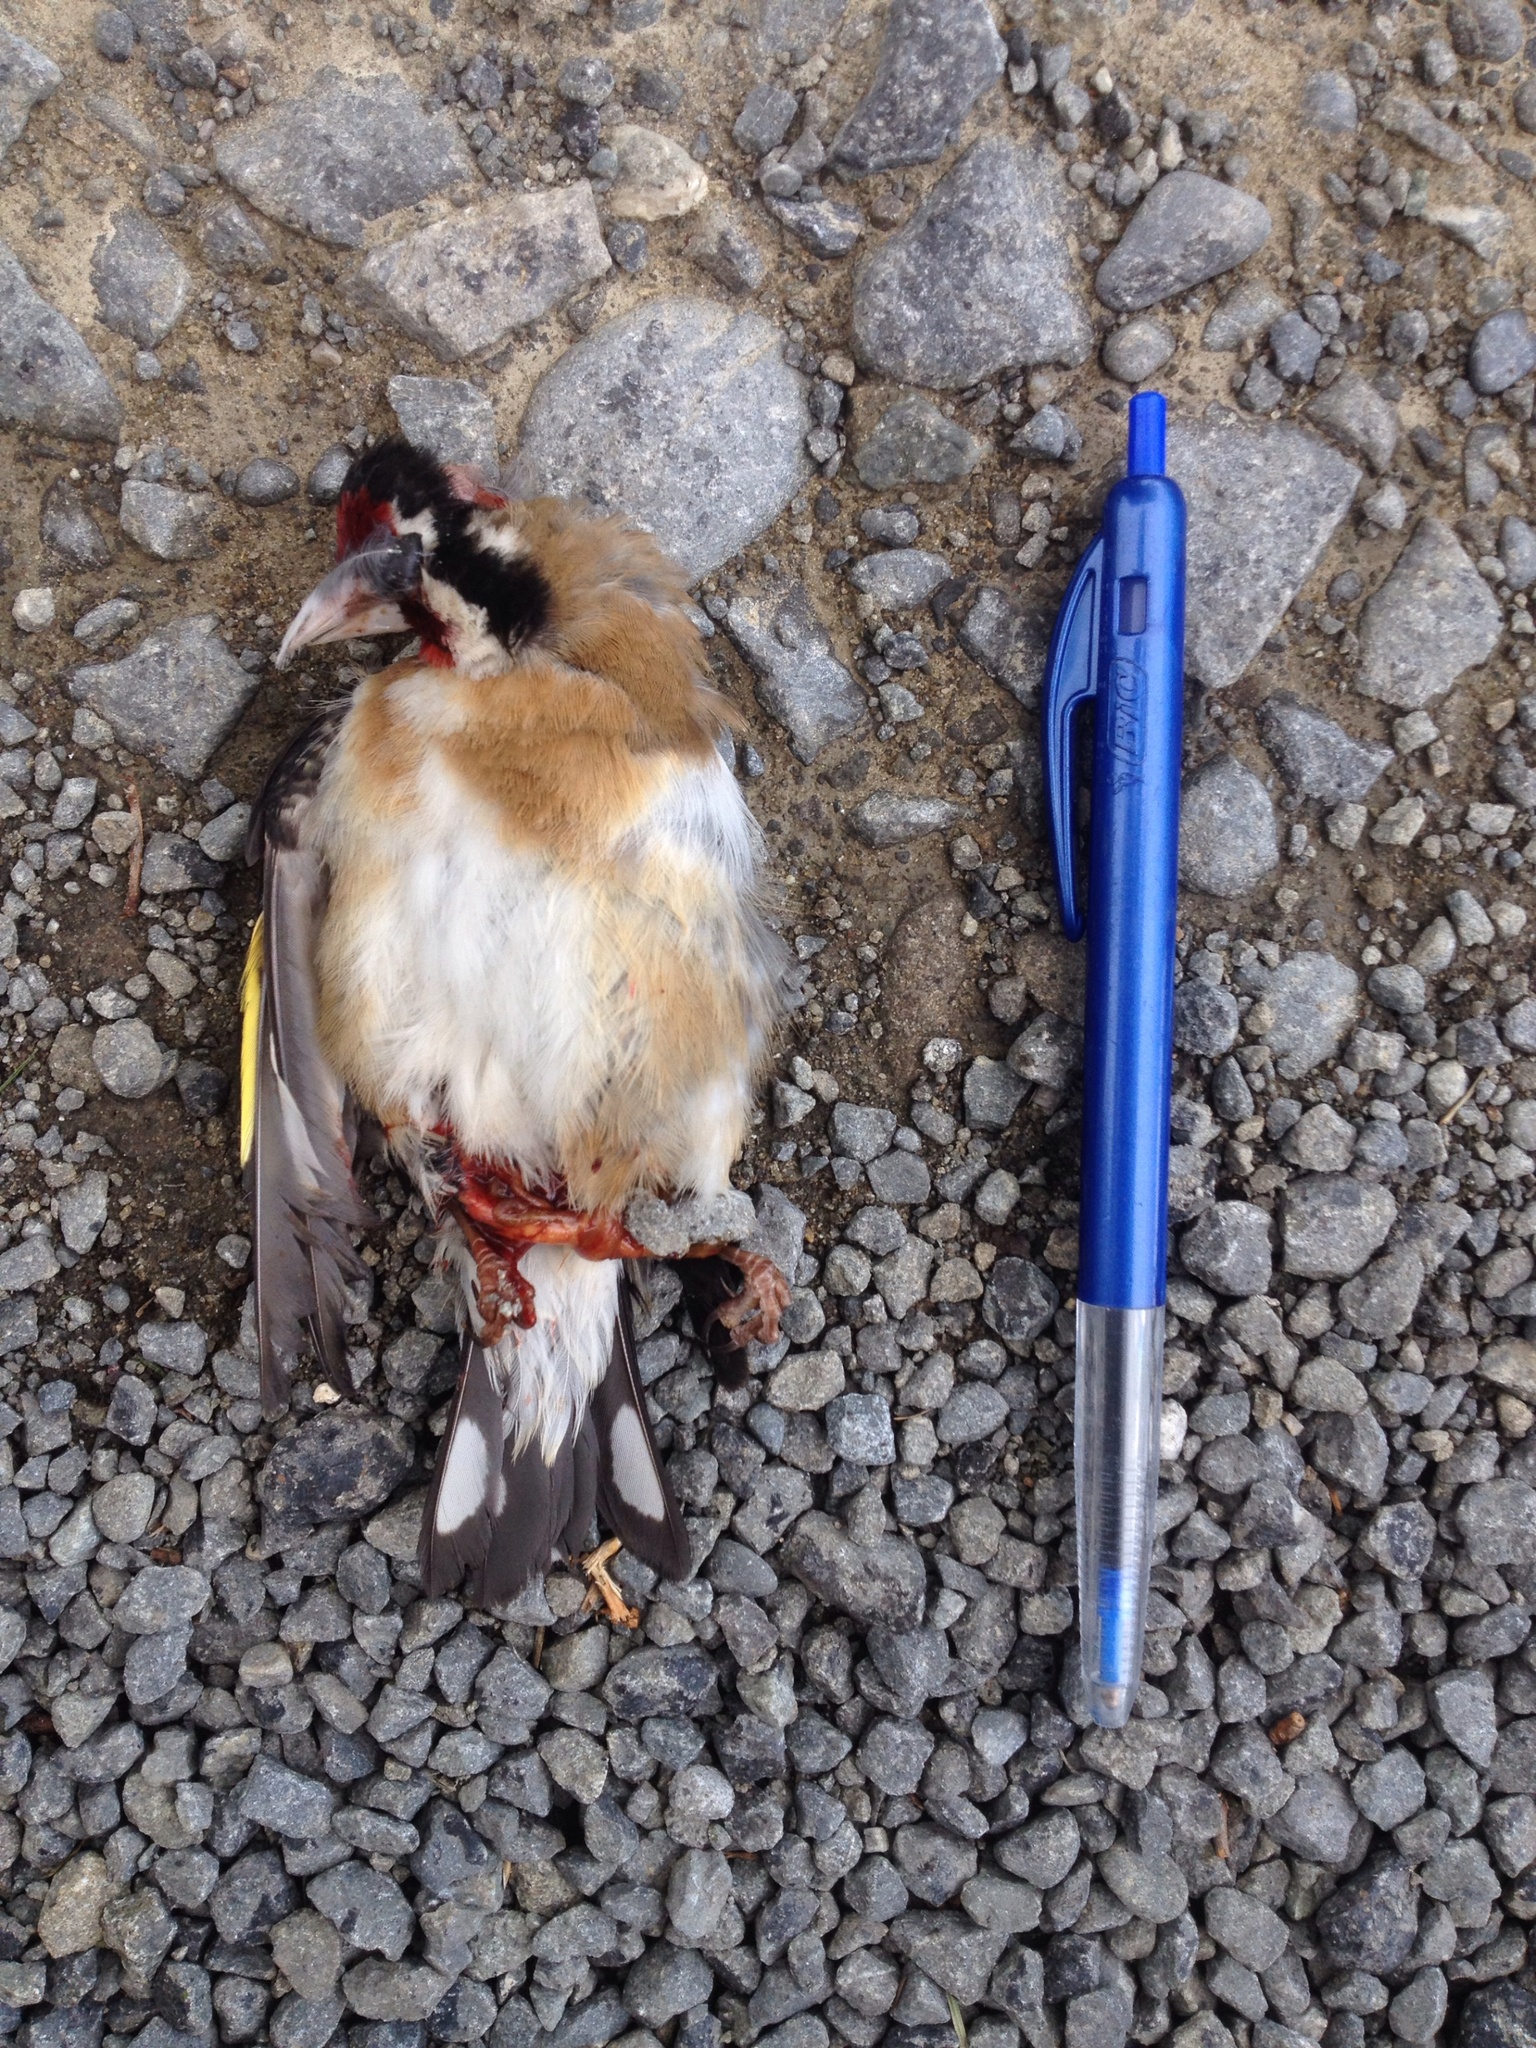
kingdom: Animalia
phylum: Chordata
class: Aves
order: Passeriformes
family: Fringillidae
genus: Carduelis
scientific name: Carduelis carduelis
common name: European goldfinch
